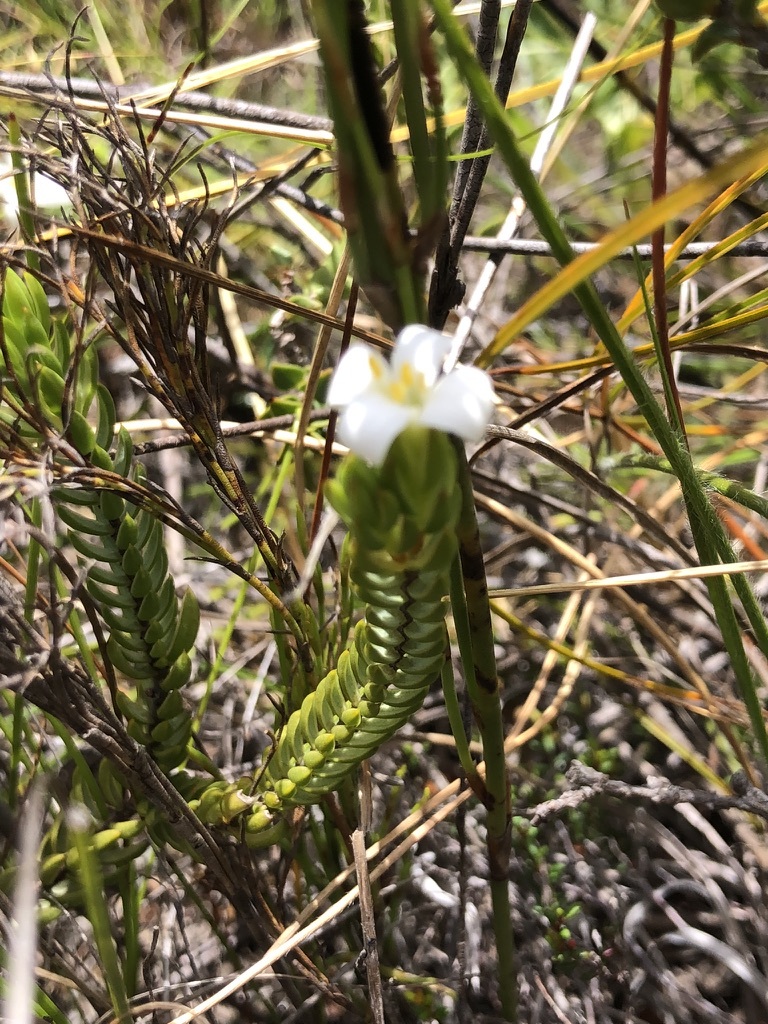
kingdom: Plantae
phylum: Tracheophyta
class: Magnoliopsida
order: Malvales
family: Thymelaeaceae
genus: Lachnaea
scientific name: Lachnaea grandiflora
